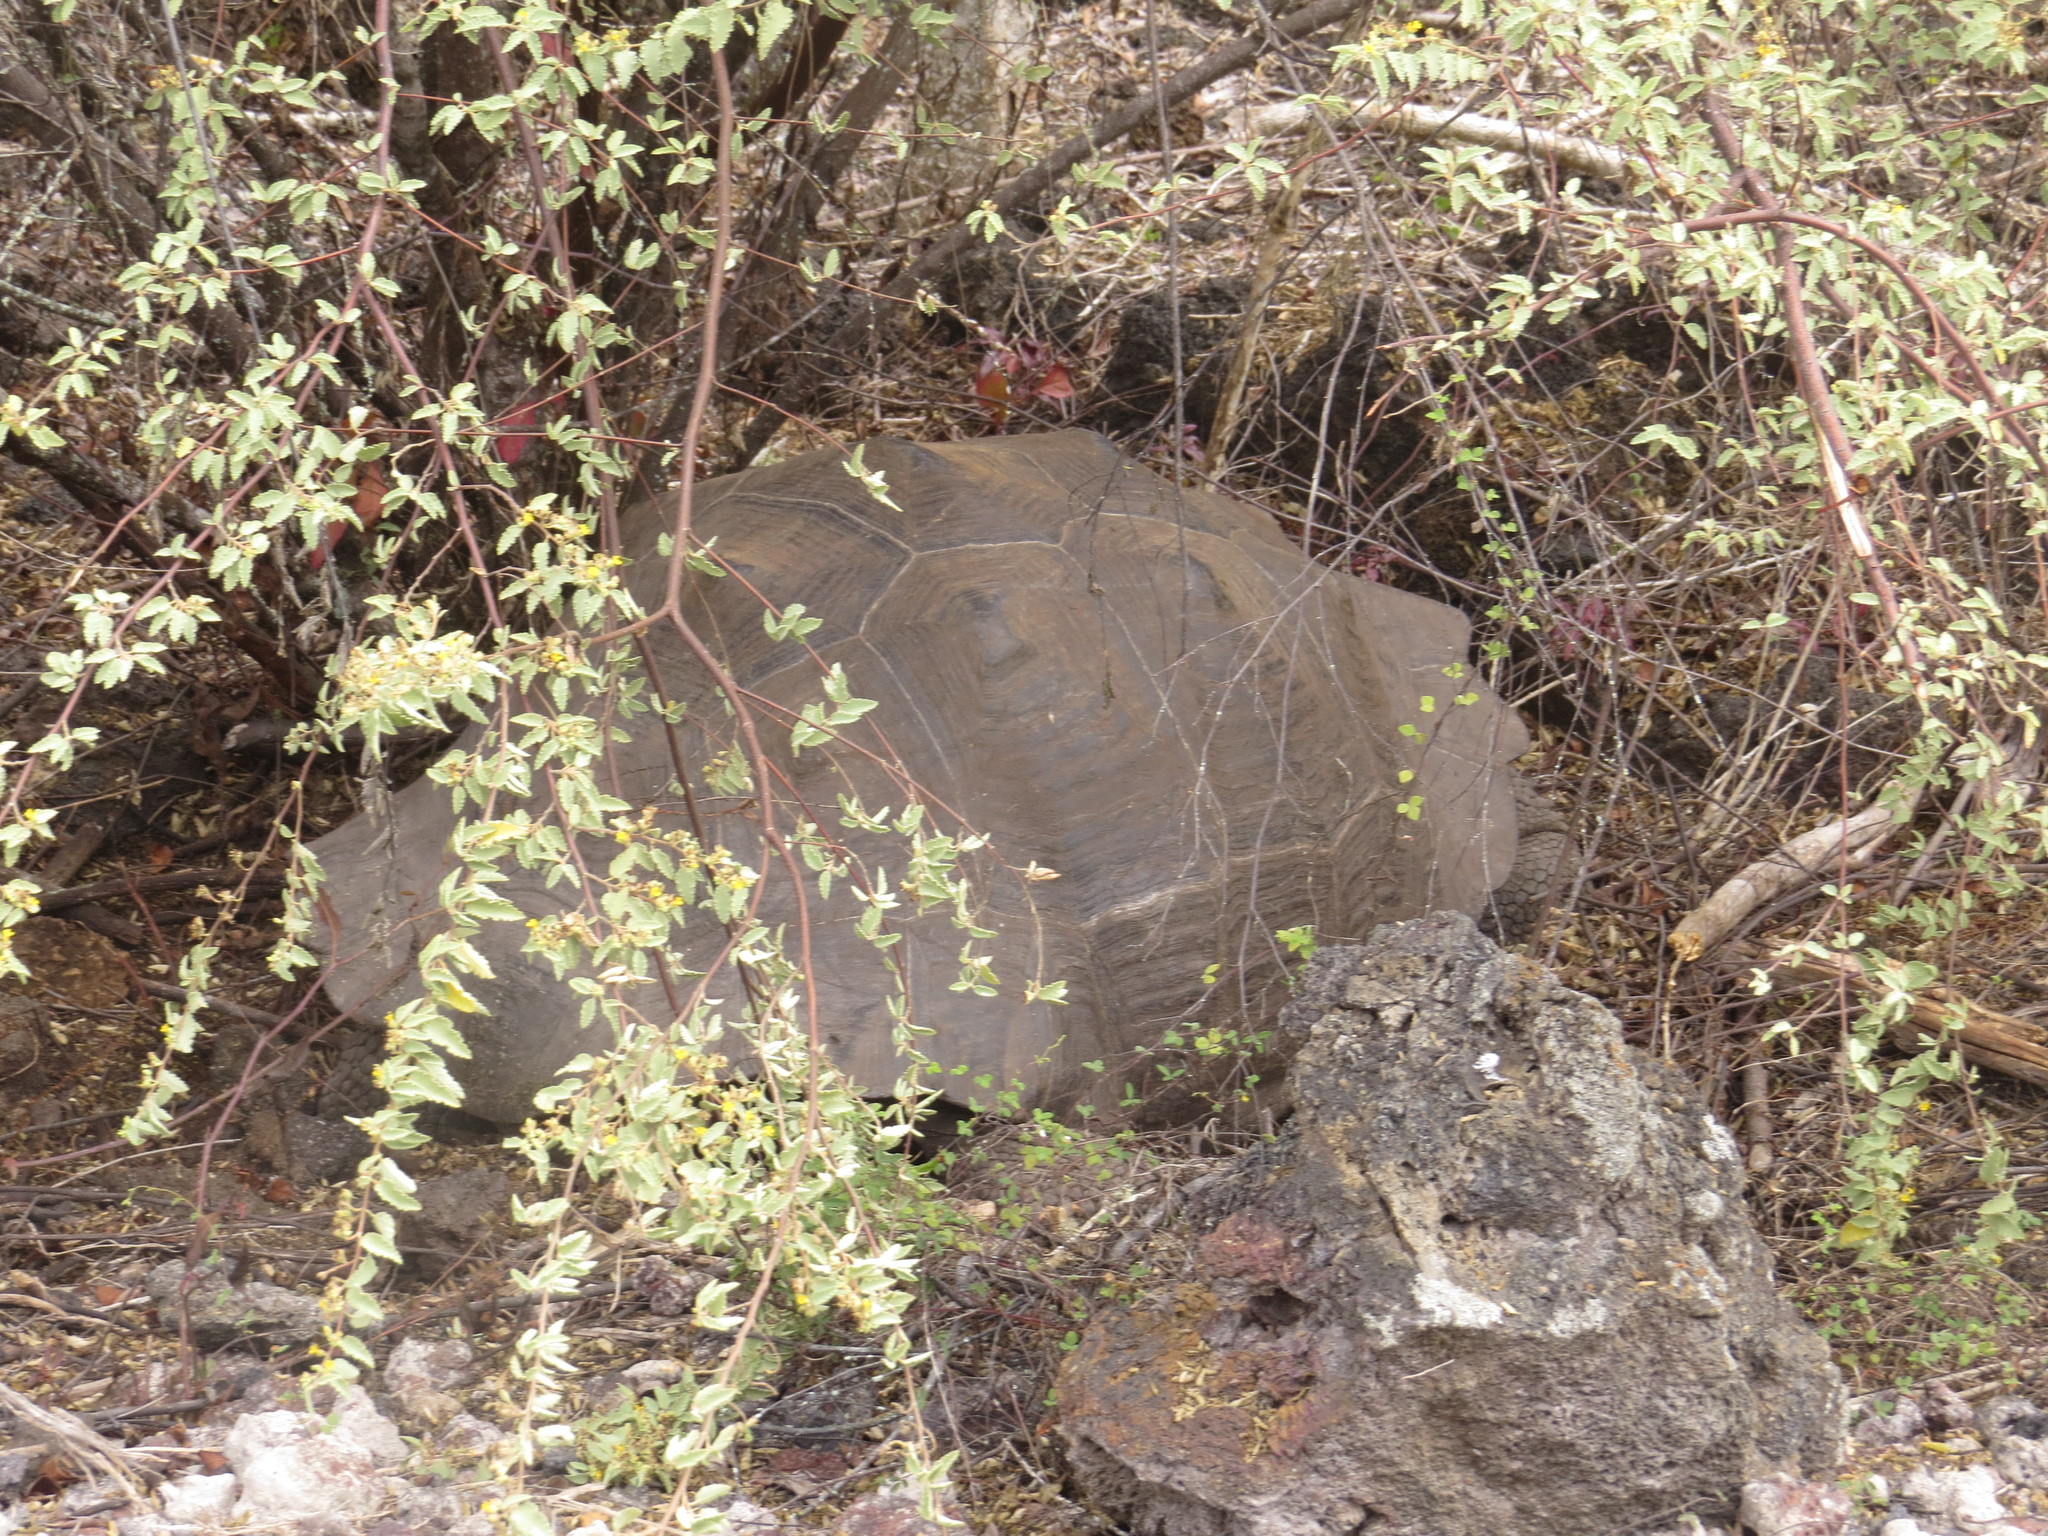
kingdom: Animalia
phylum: Chordata
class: Testudines
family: Testudinidae
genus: Chelonoidis
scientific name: Chelonoidis guntheri
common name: Sierra negra giant tortoise
